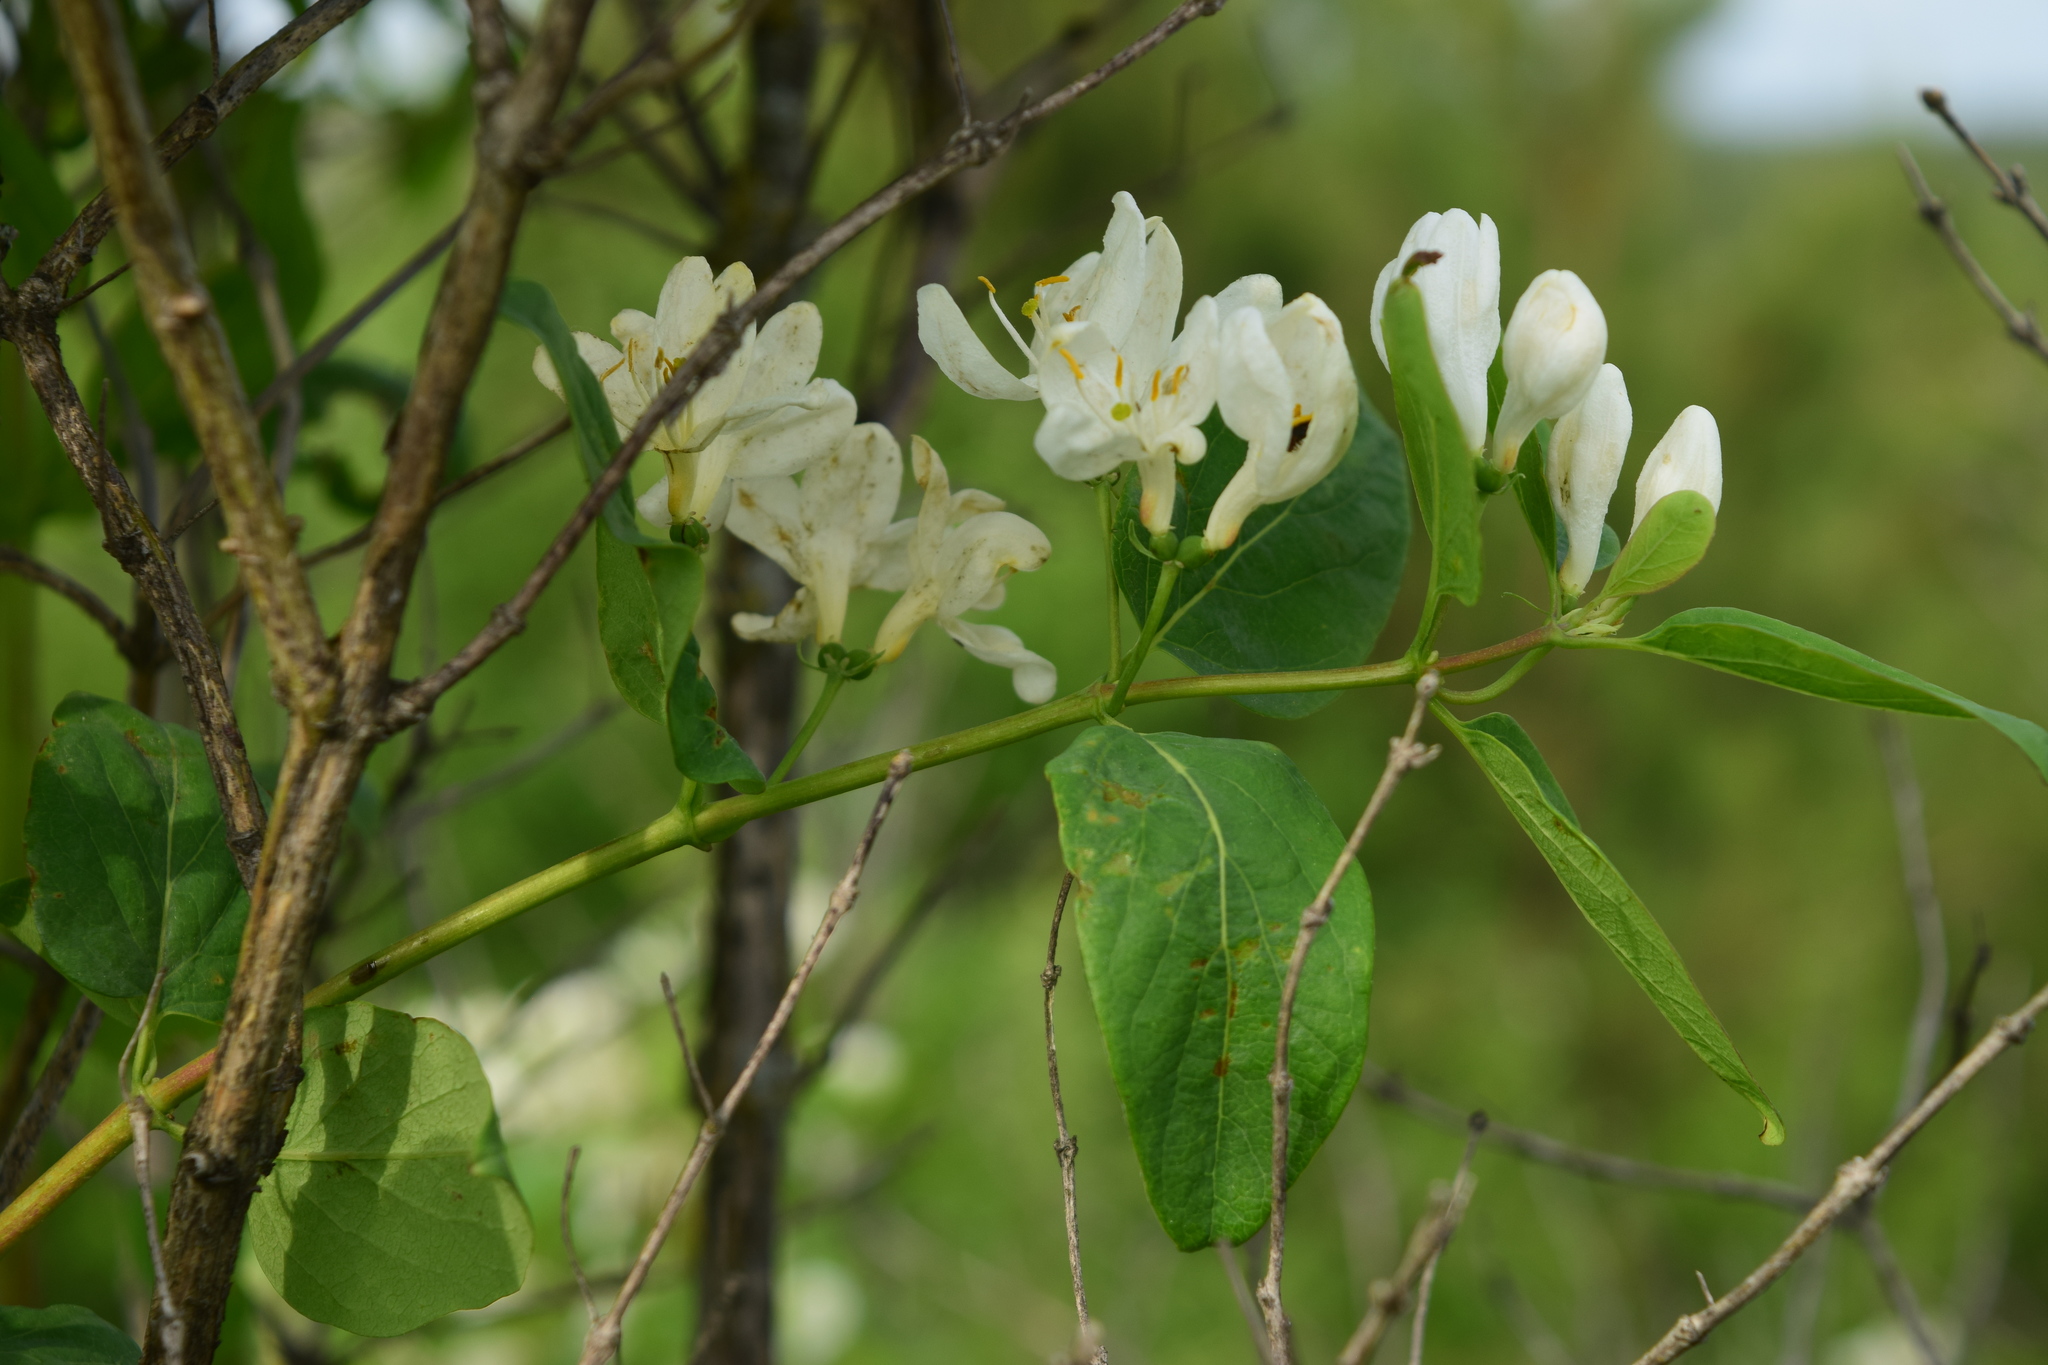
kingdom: Plantae
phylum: Tracheophyta
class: Magnoliopsida
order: Dipsacales
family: Caprifoliaceae
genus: Lonicera
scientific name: Lonicera tatarica
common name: Tatarian honeysuckle
